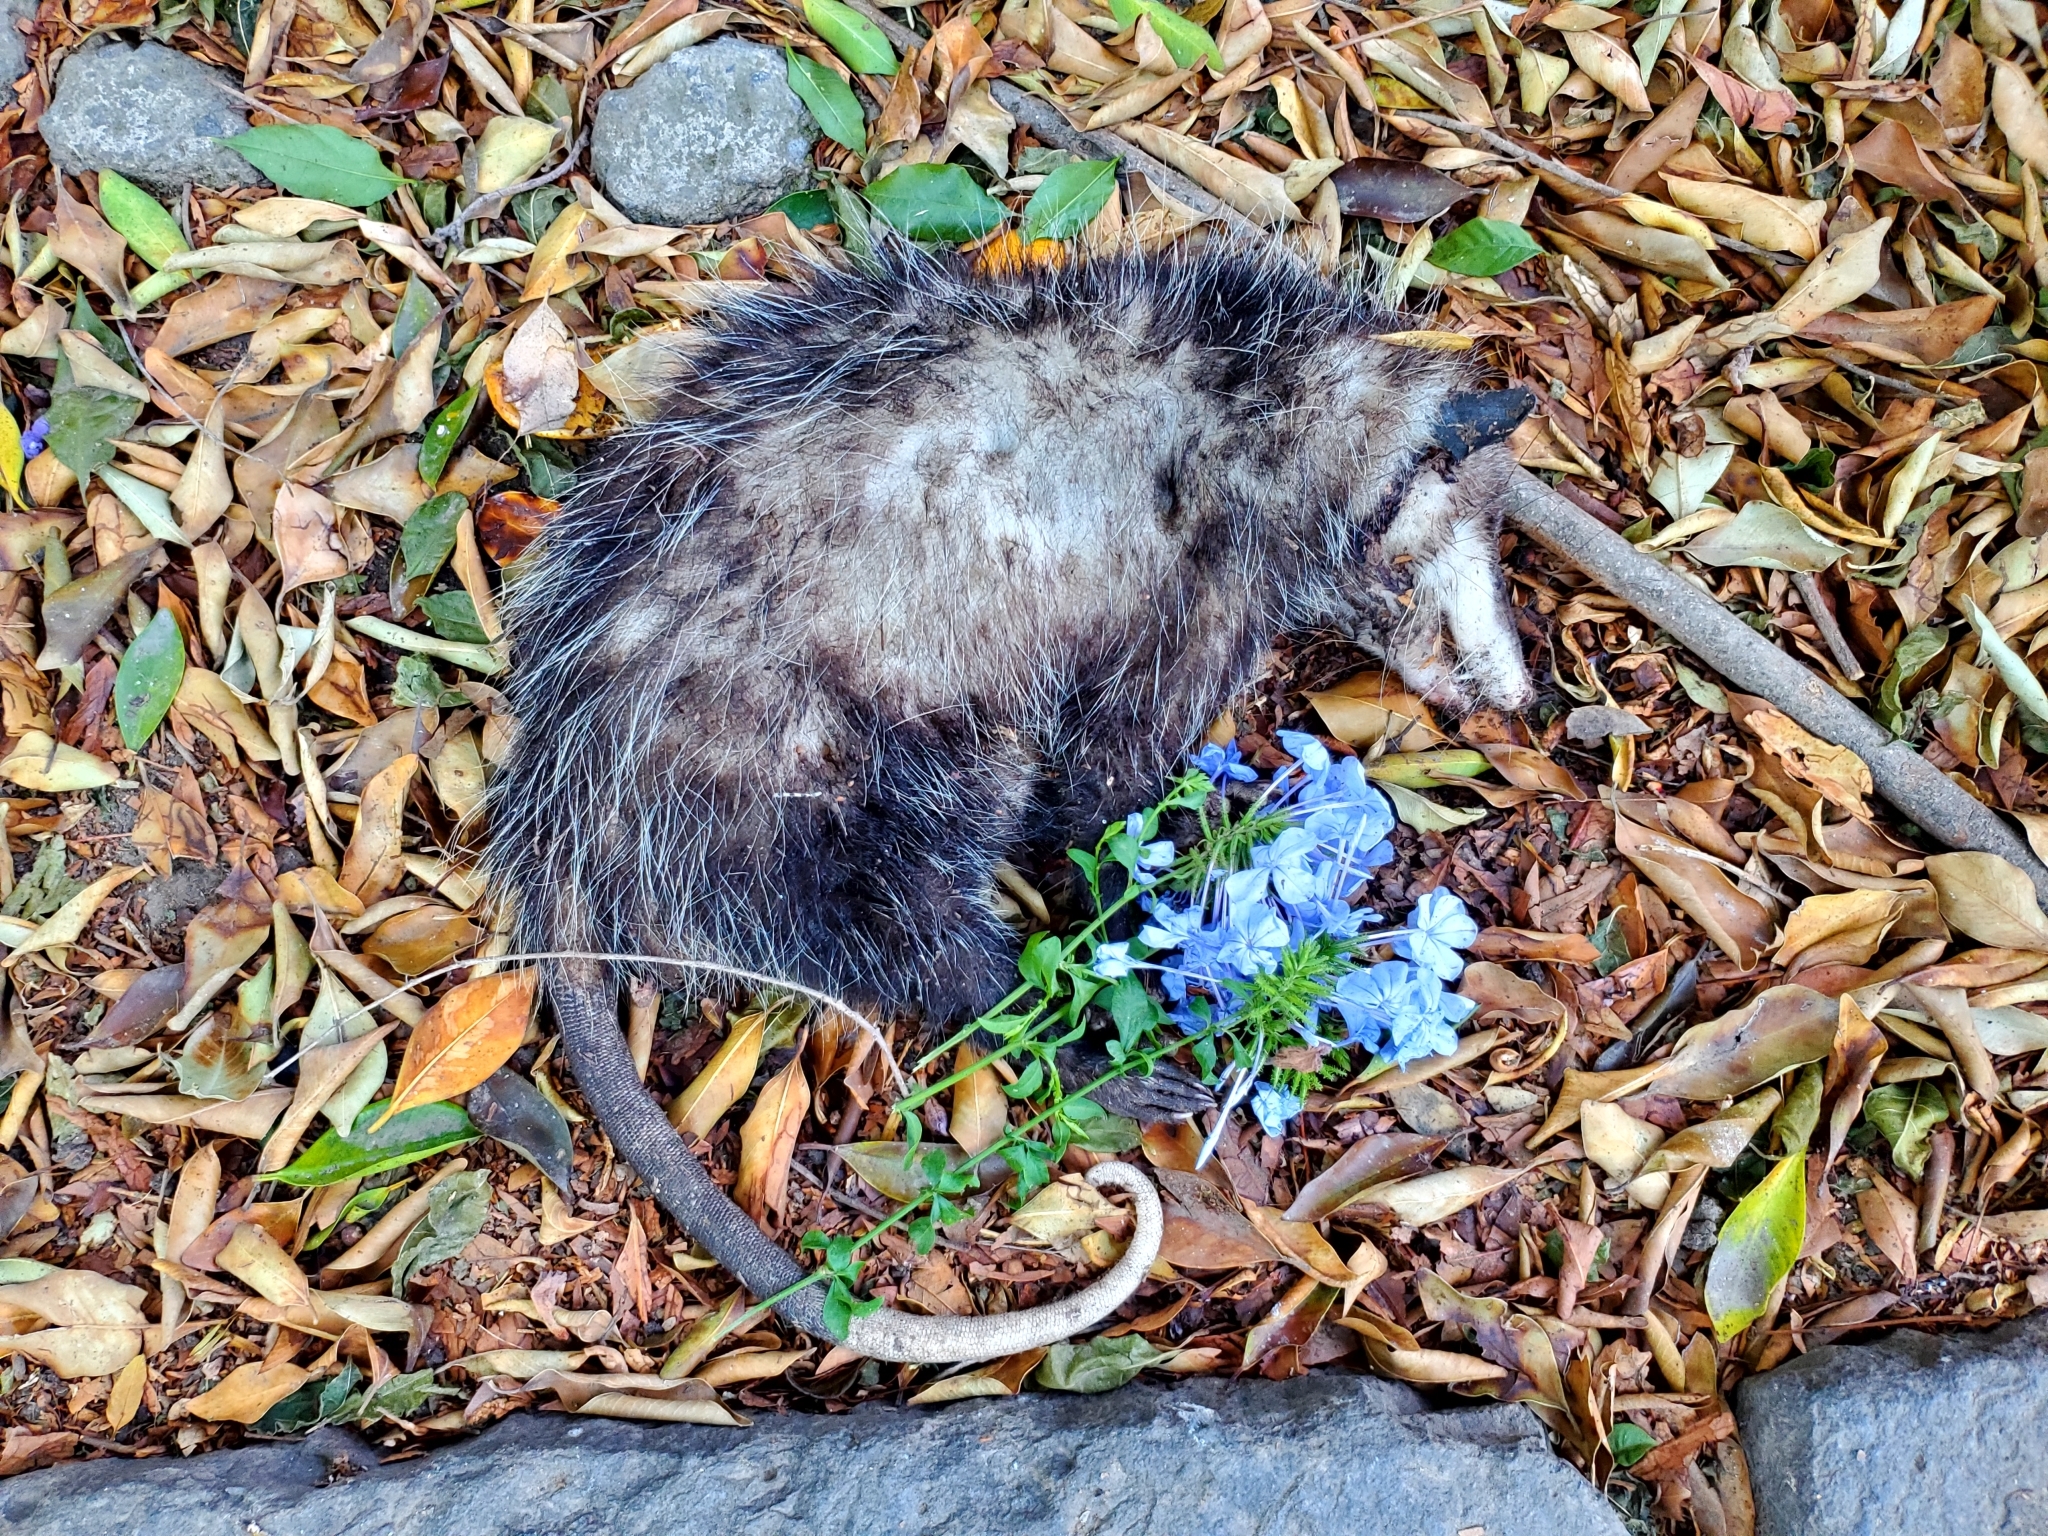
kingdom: Animalia
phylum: Chordata
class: Mammalia
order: Didelphimorphia
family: Didelphidae
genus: Didelphis
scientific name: Didelphis virginiana
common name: Virginia opossum
